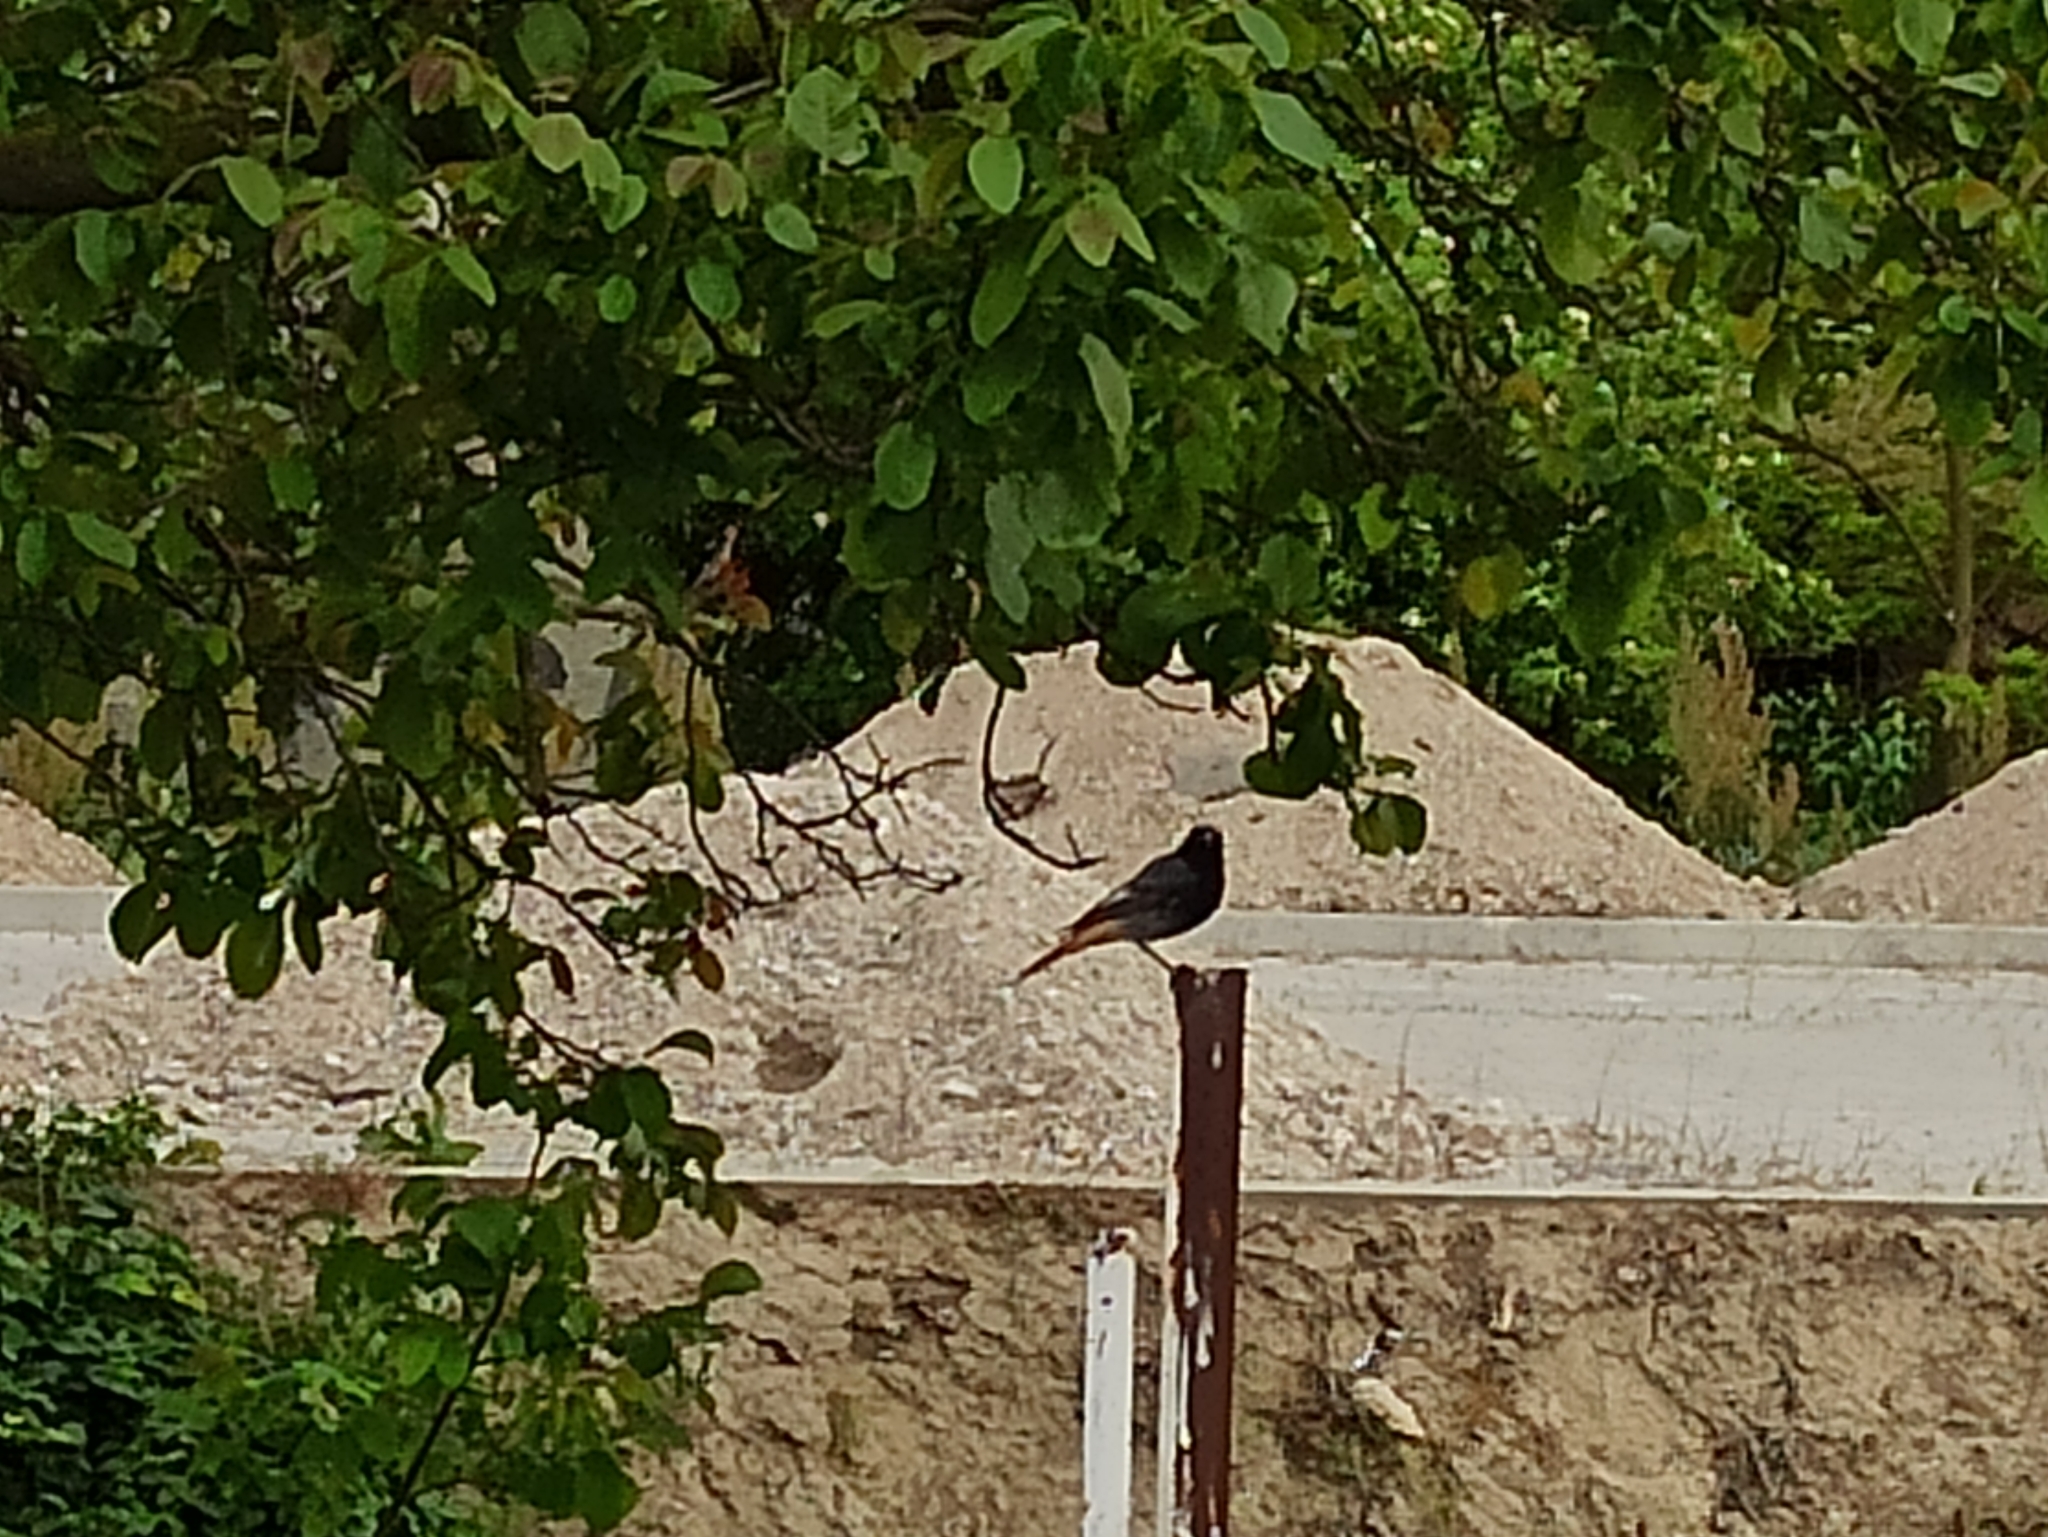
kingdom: Animalia
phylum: Chordata
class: Aves
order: Passeriformes
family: Muscicapidae
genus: Phoenicurus
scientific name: Phoenicurus ochruros
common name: Black redstart
